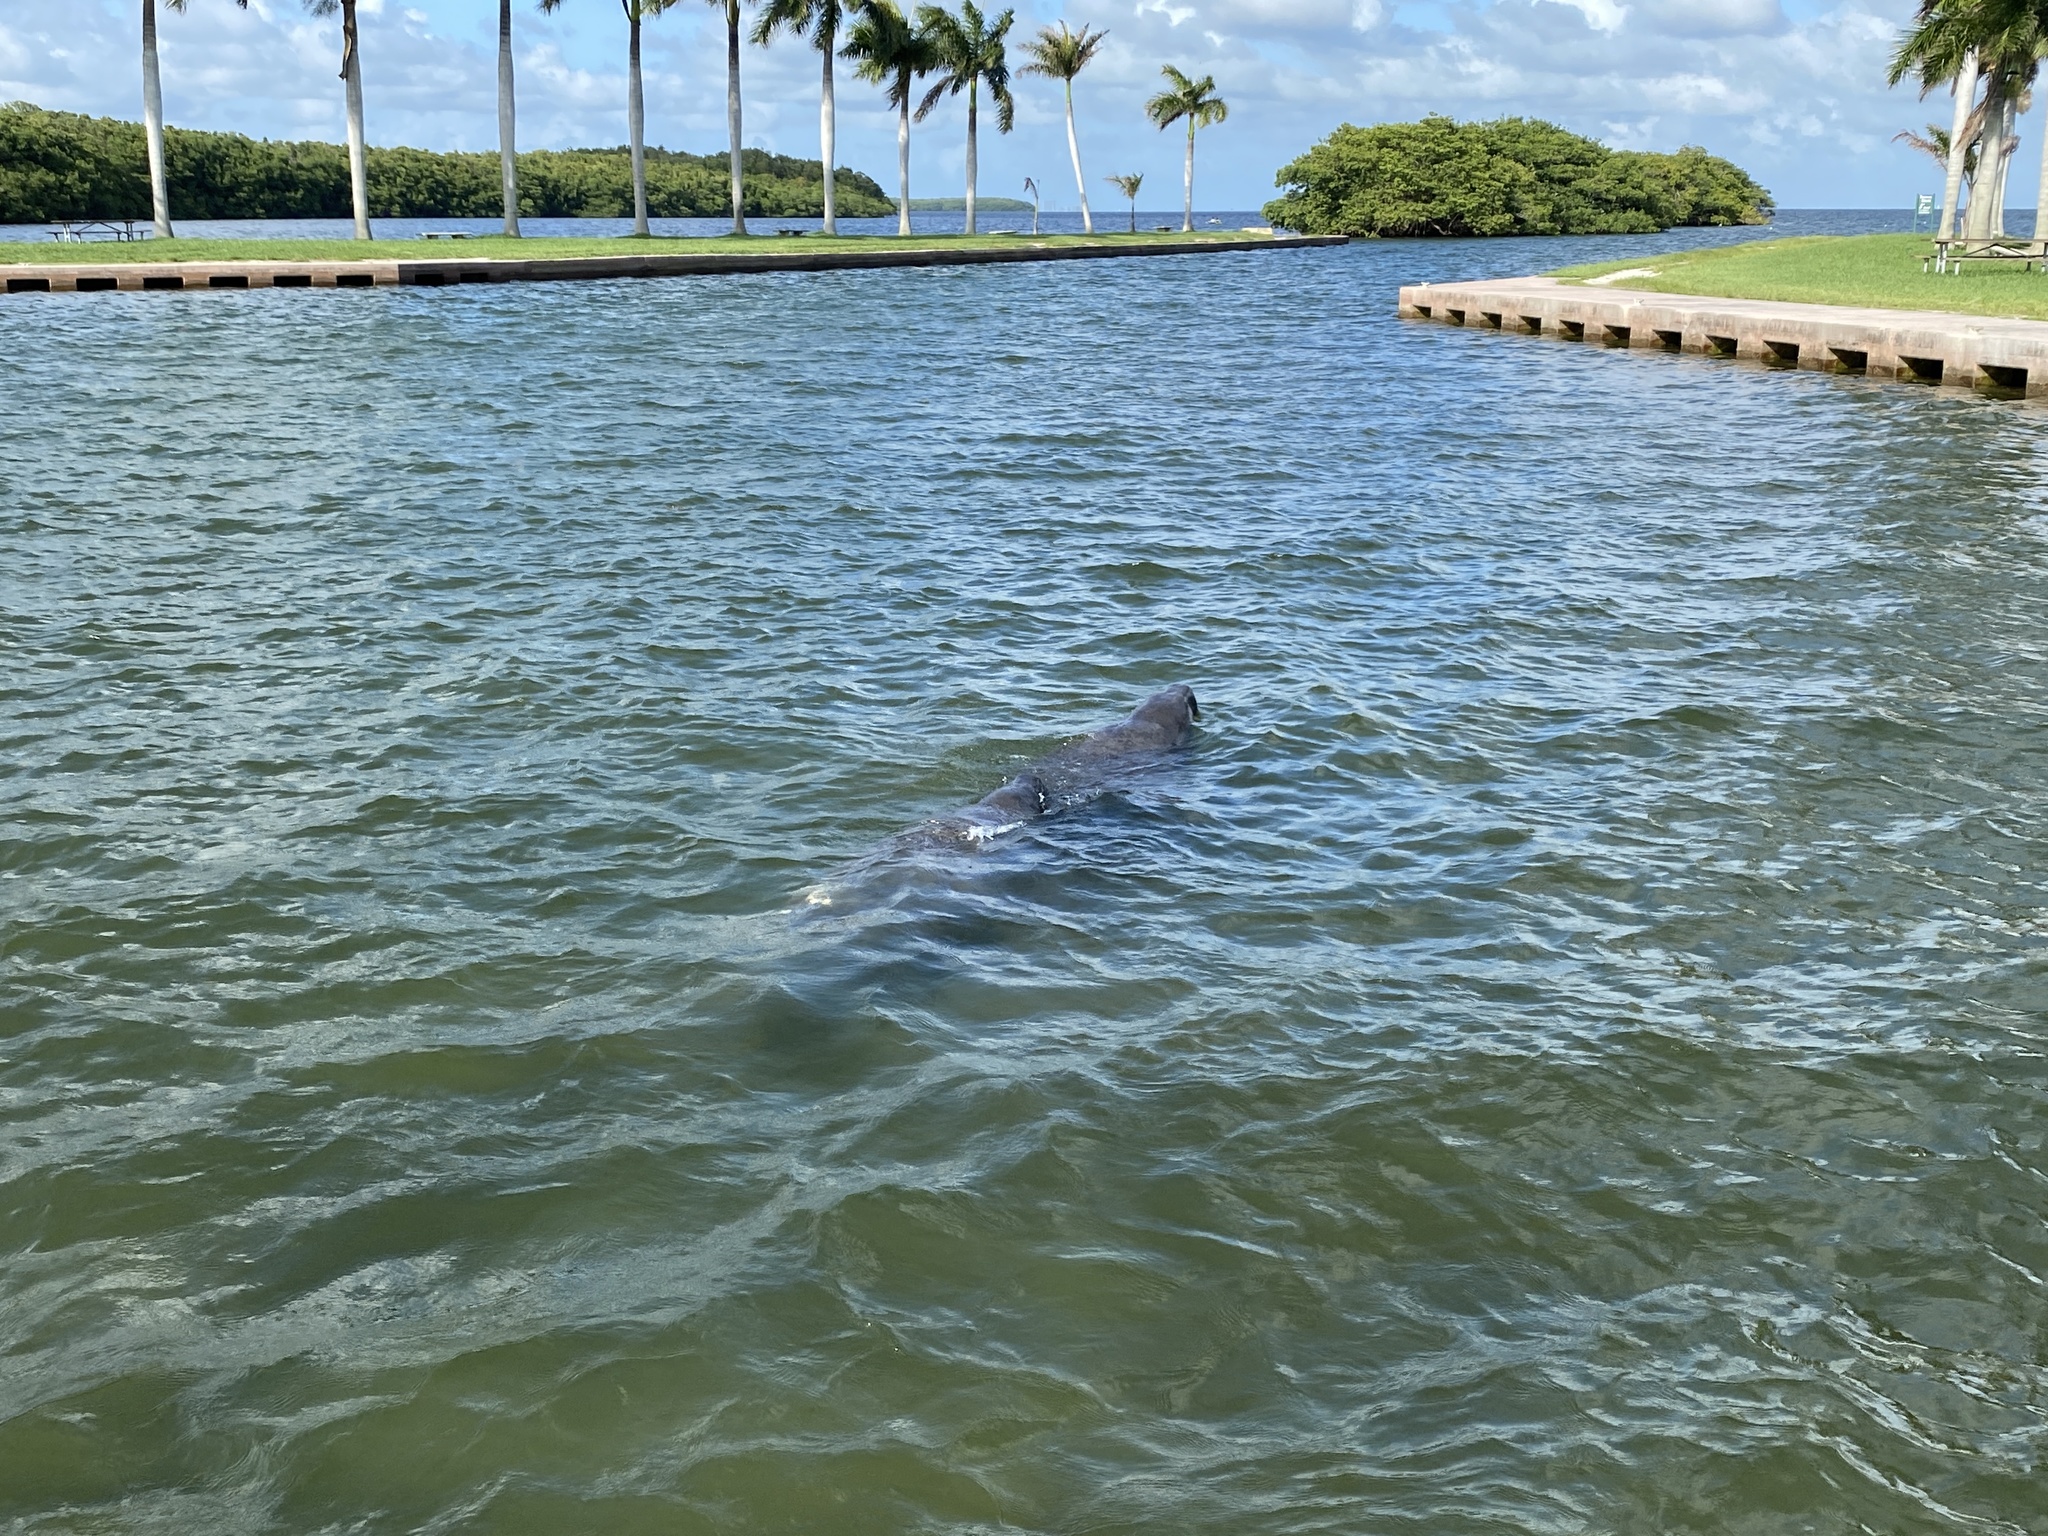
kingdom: Animalia
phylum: Chordata
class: Mammalia
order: Sirenia
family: Trichechidae
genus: Trichechus
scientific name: Trichechus manatus
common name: West indian manatee
